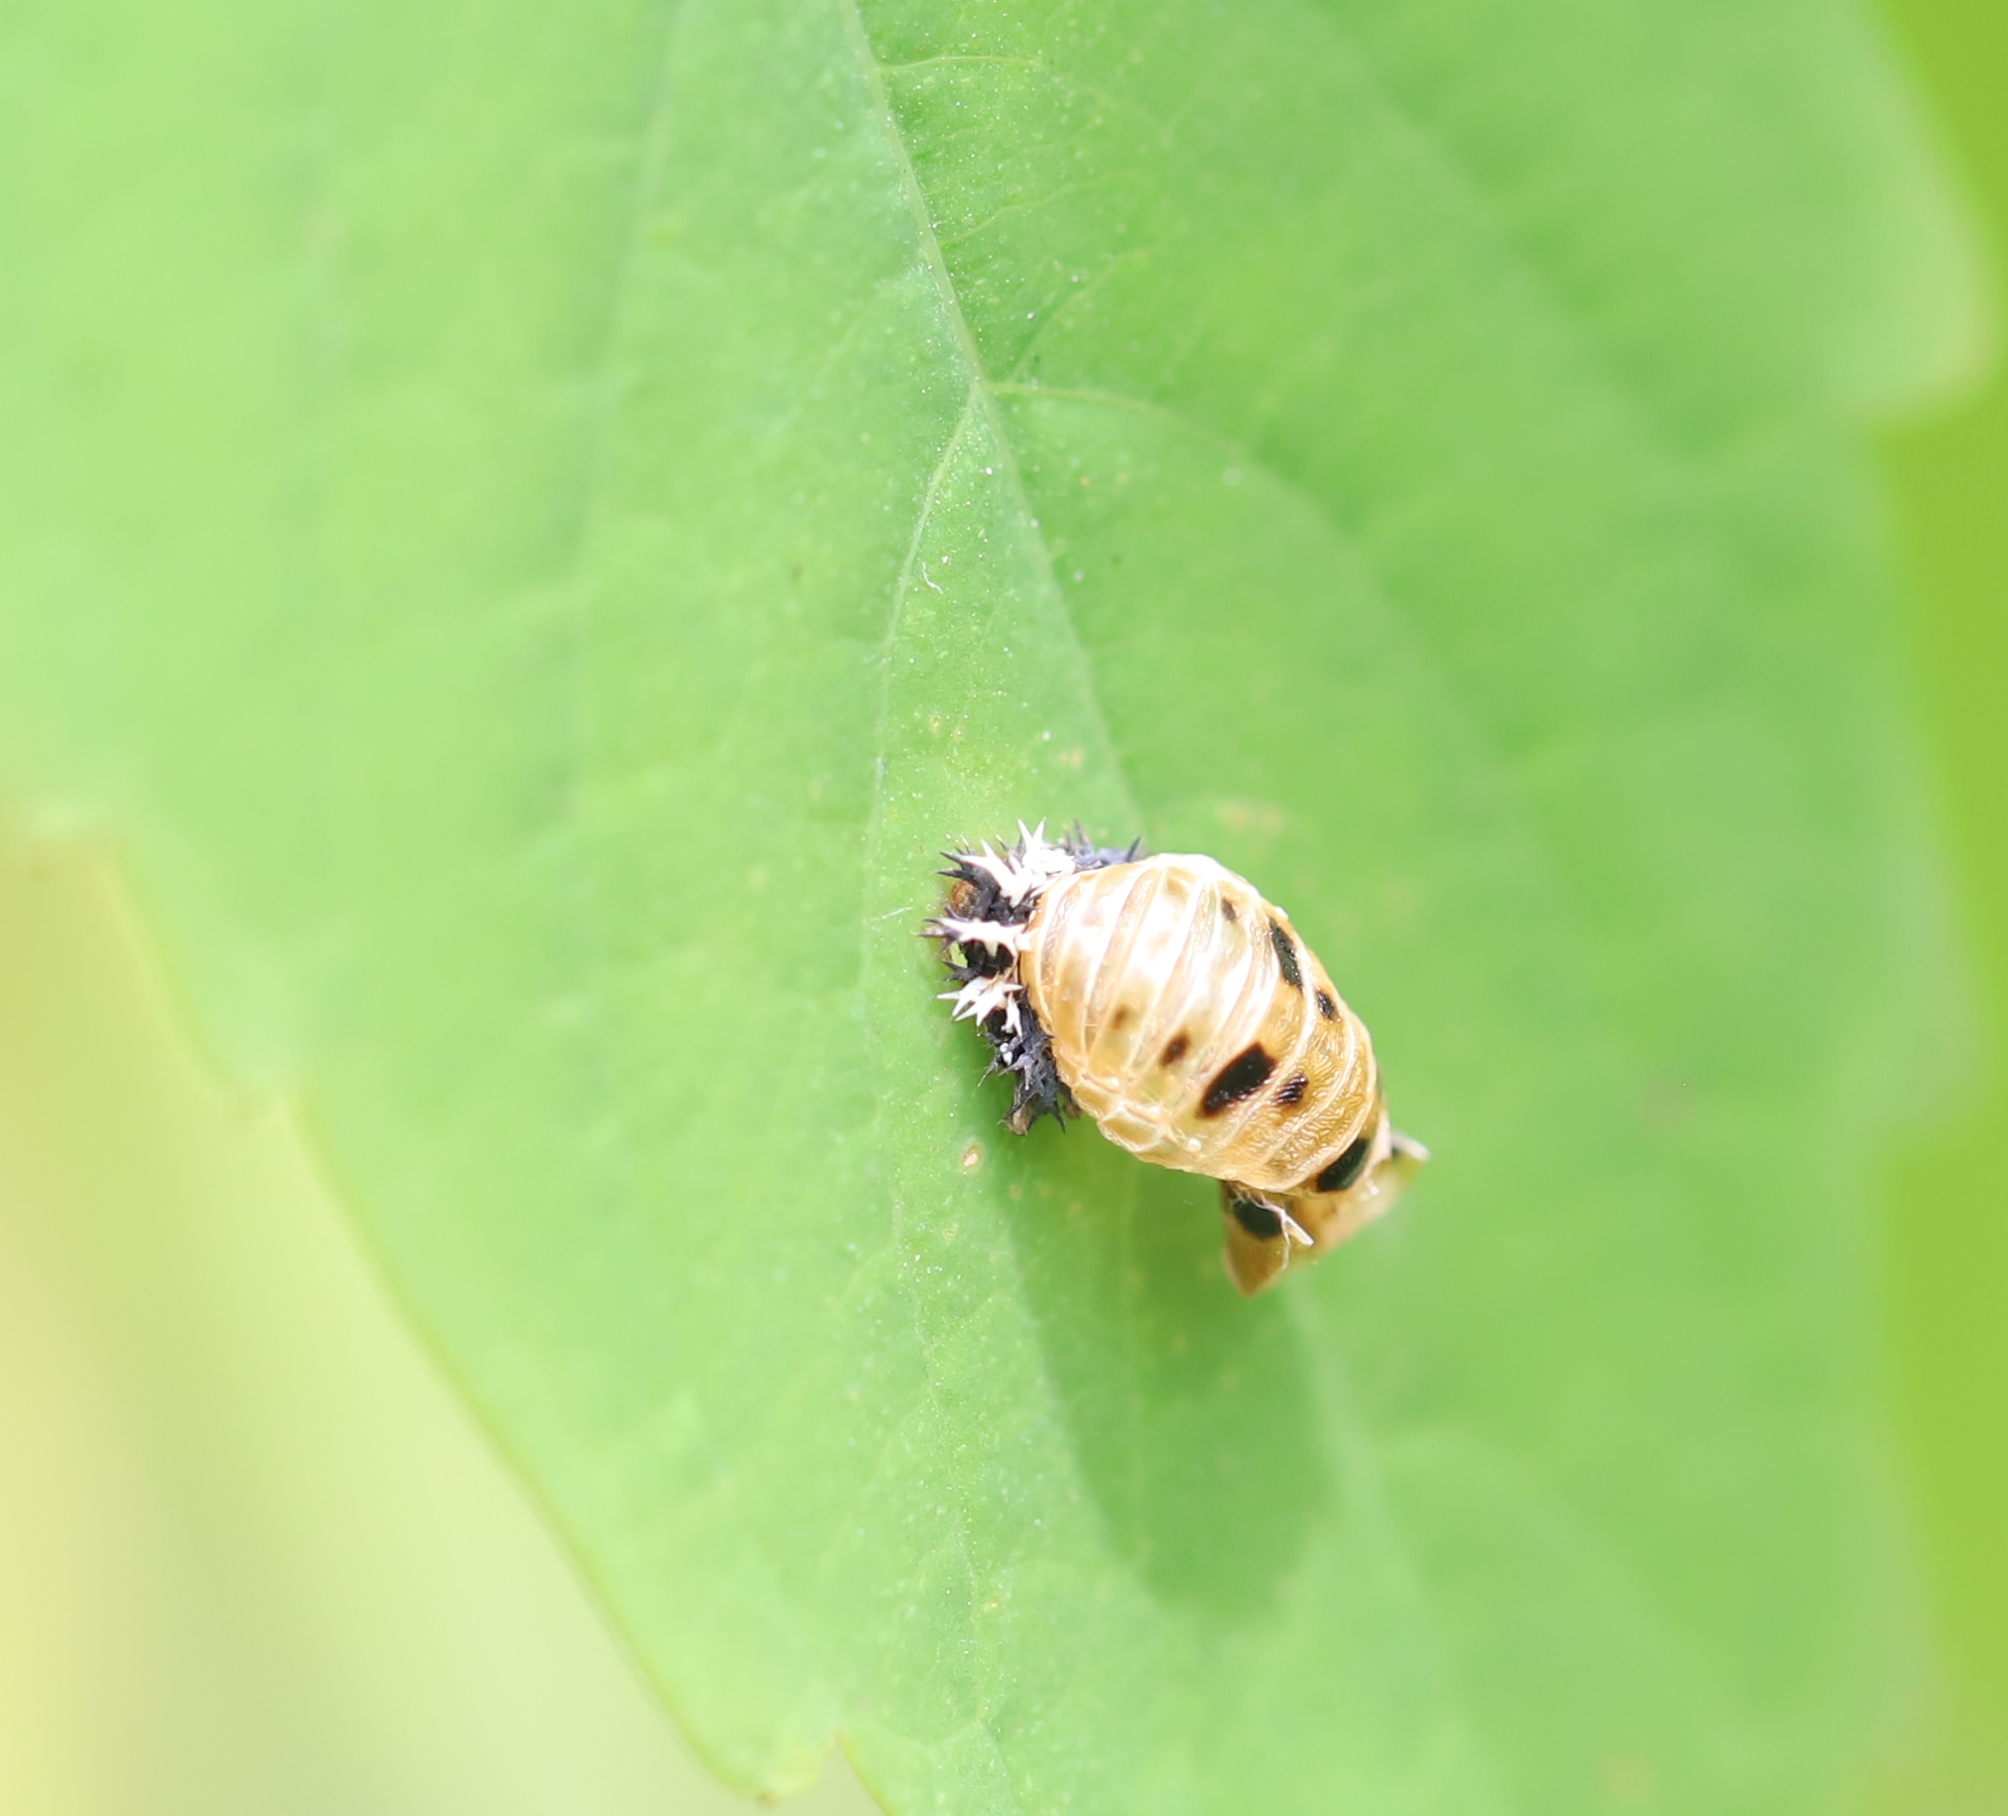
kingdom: Animalia
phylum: Arthropoda
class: Insecta
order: Coleoptera
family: Coccinellidae
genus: Harmonia
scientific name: Harmonia axyridis
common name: Harlequin ladybird
